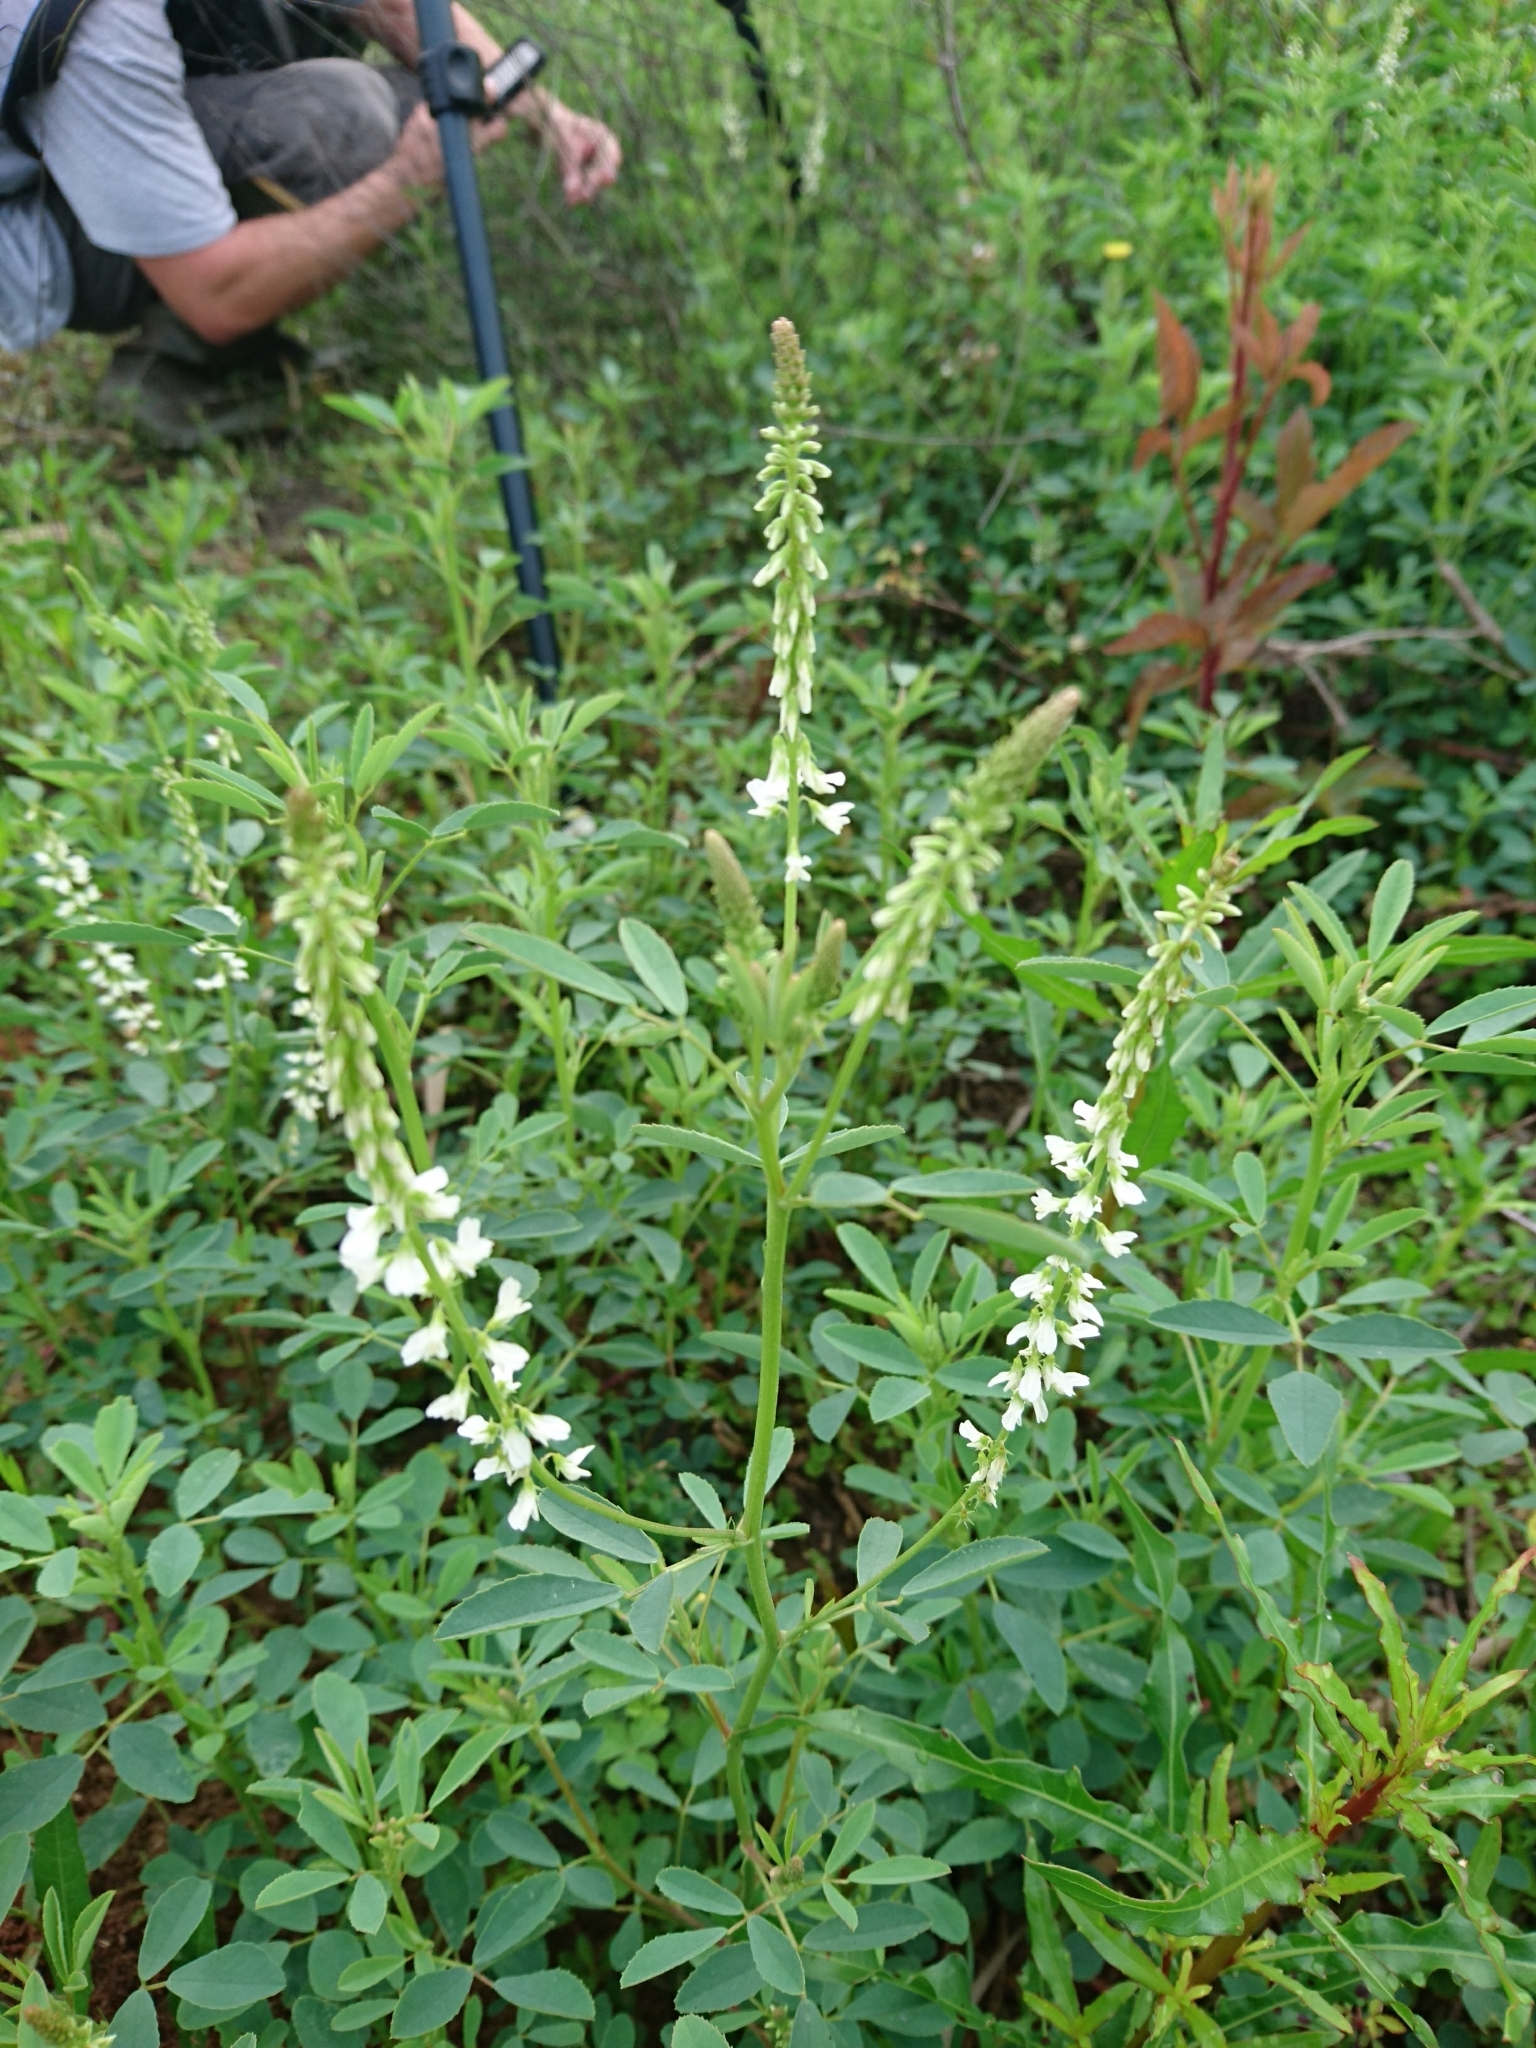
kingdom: Plantae
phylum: Tracheophyta
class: Magnoliopsida
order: Fabales
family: Fabaceae
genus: Melilotus
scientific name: Melilotus albus
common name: White melilot
